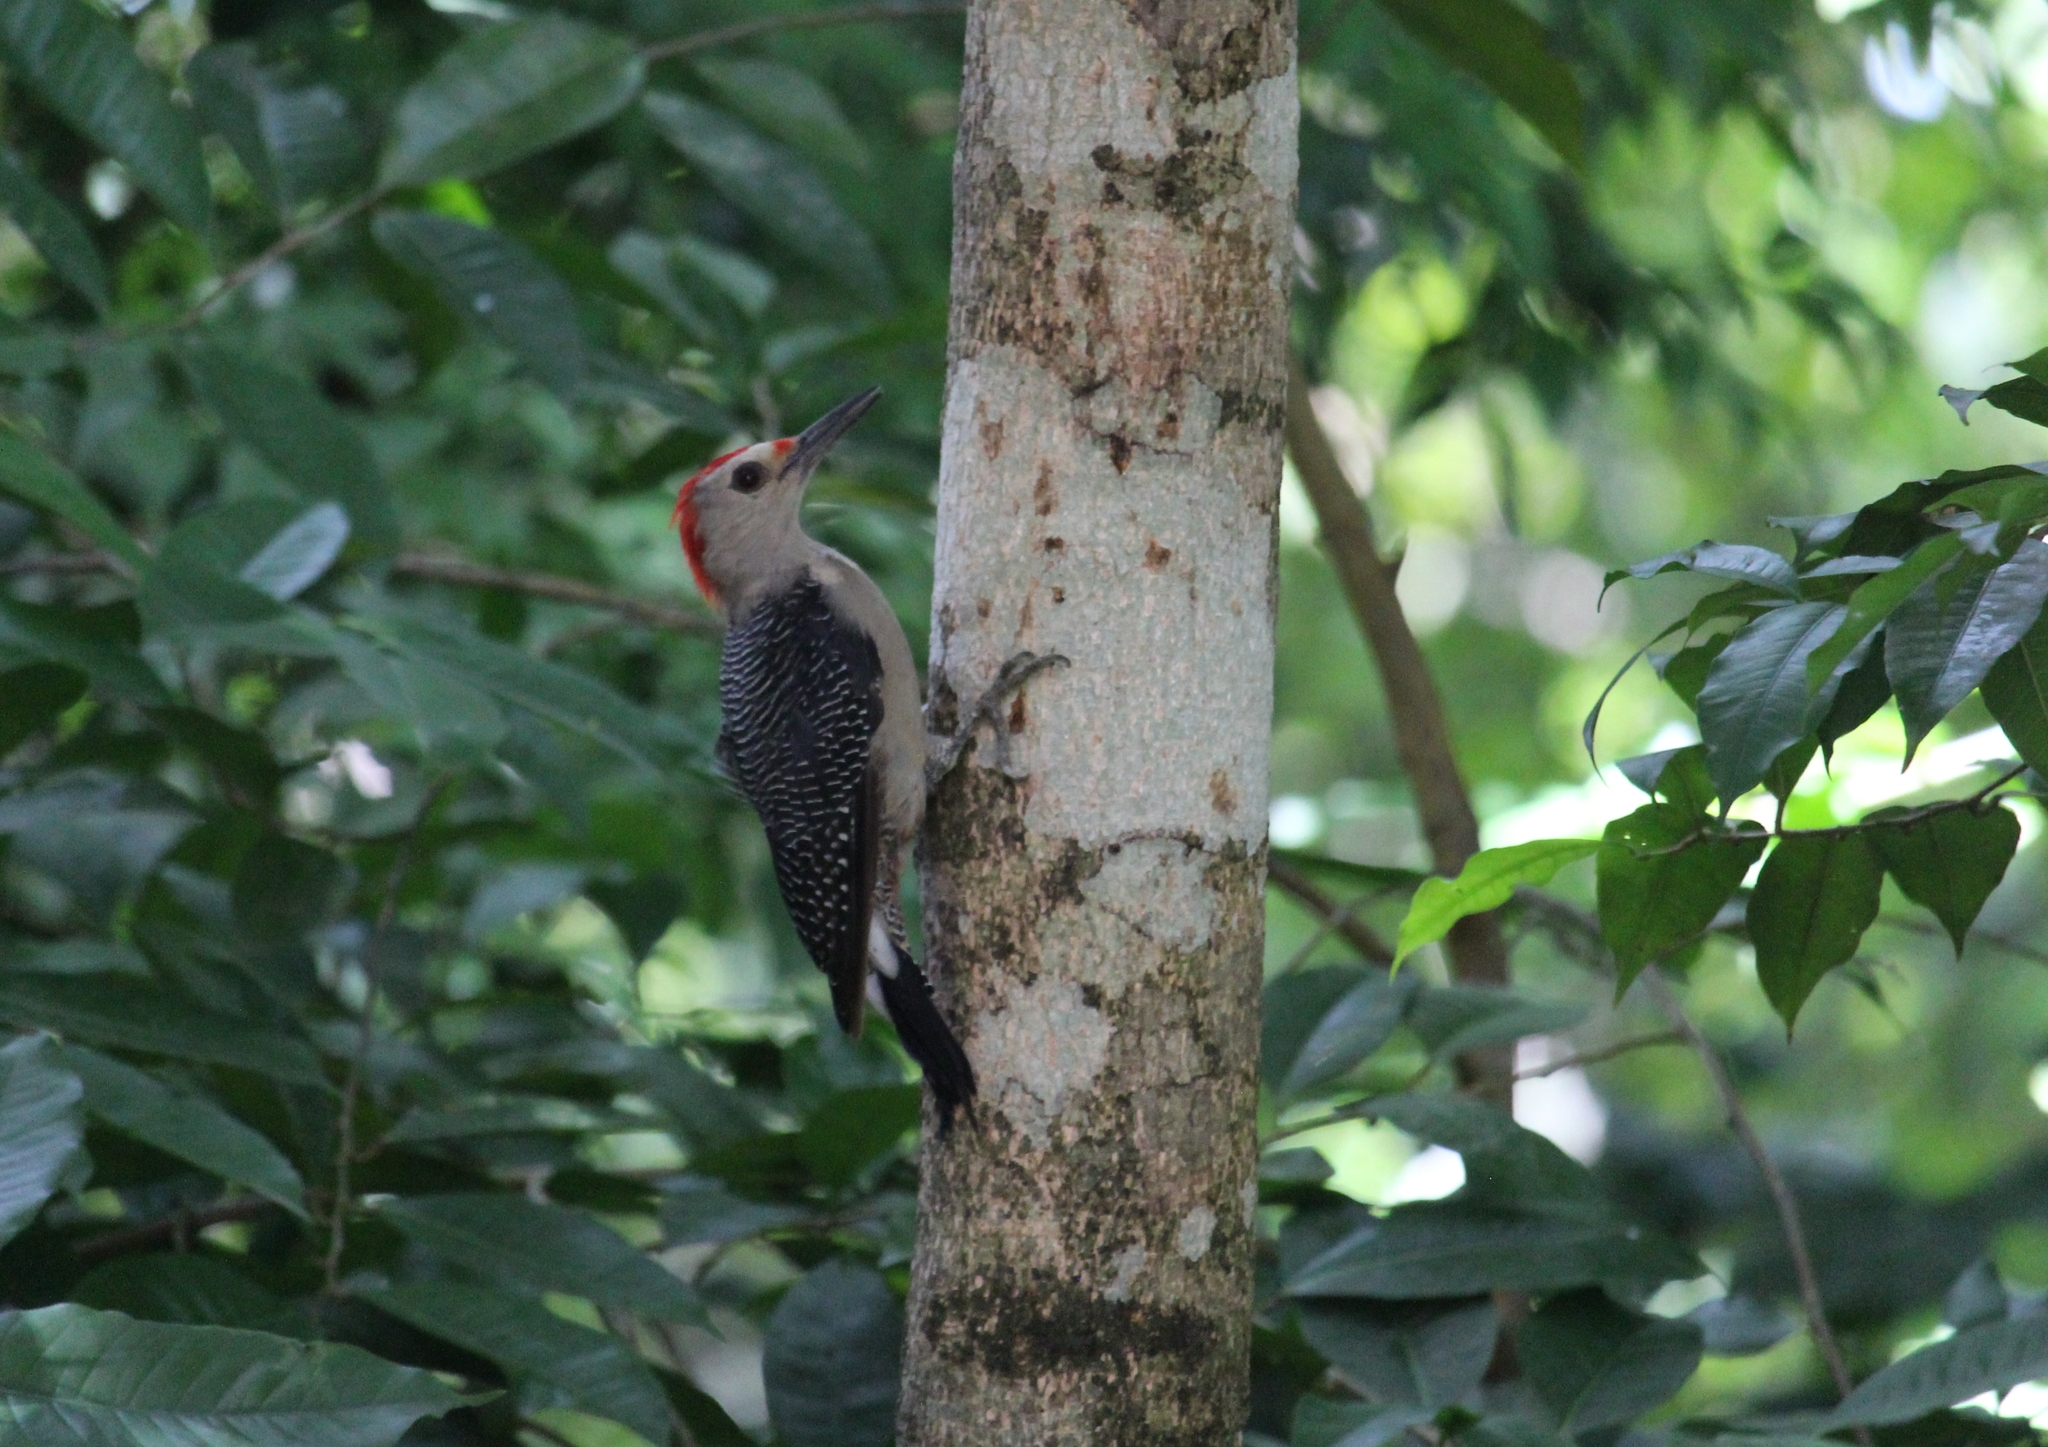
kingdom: Animalia
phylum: Chordata
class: Aves
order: Piciformes
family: Picidae
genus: Melanerpes
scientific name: Melanerpes aurifrons
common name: Golden-fronted woodpecker
